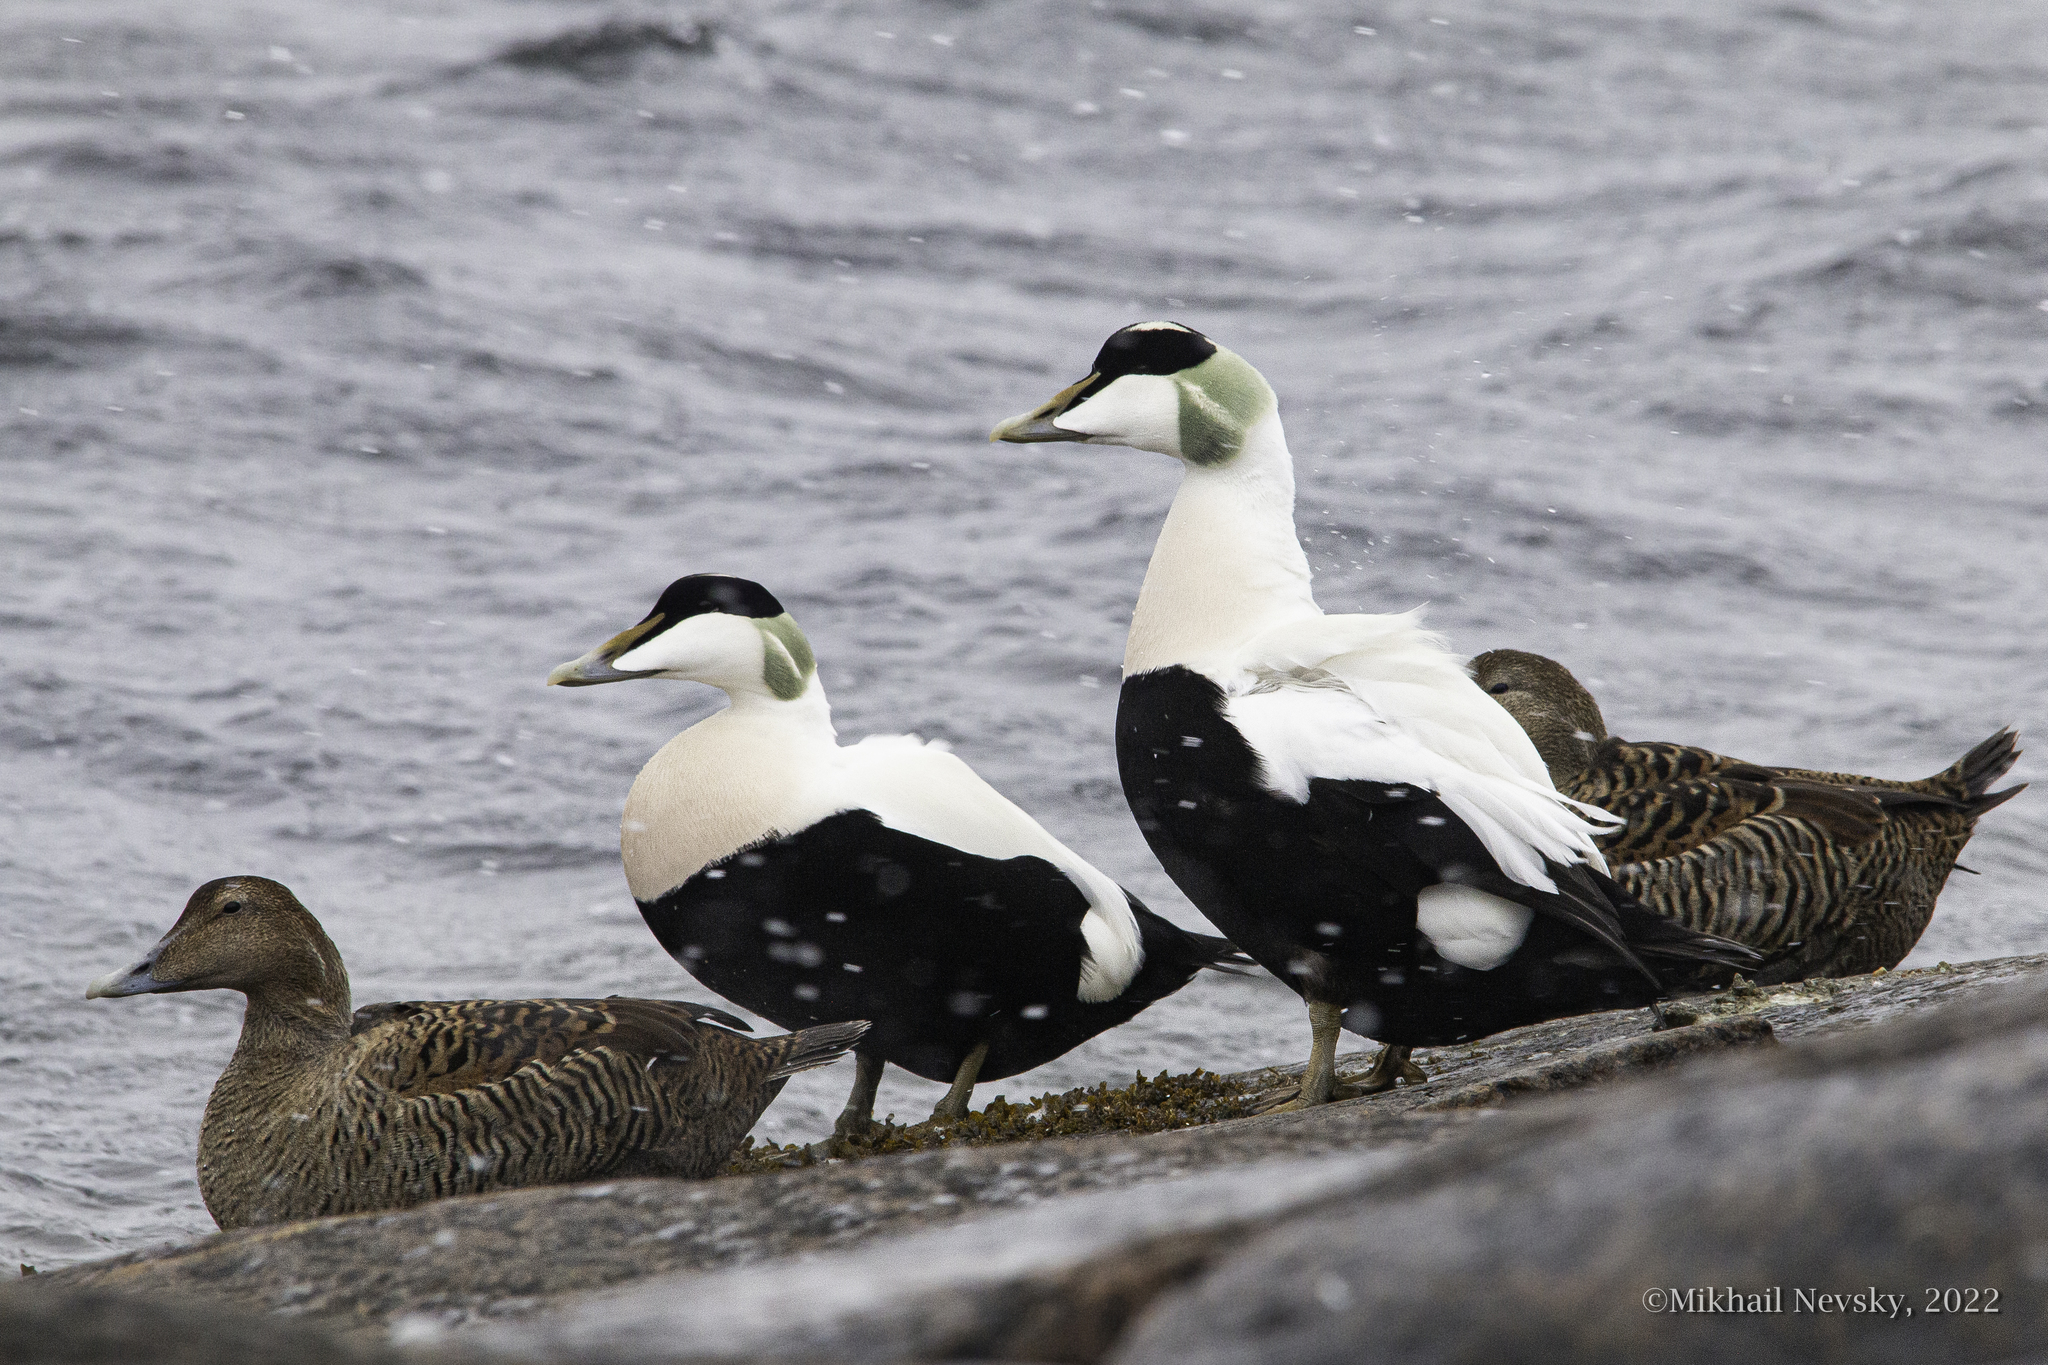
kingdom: Animalia
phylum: Chordata
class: Aves
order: Anseriformes
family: Anatidae
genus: Somateria
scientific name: Somateria mollissima
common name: Common eider
